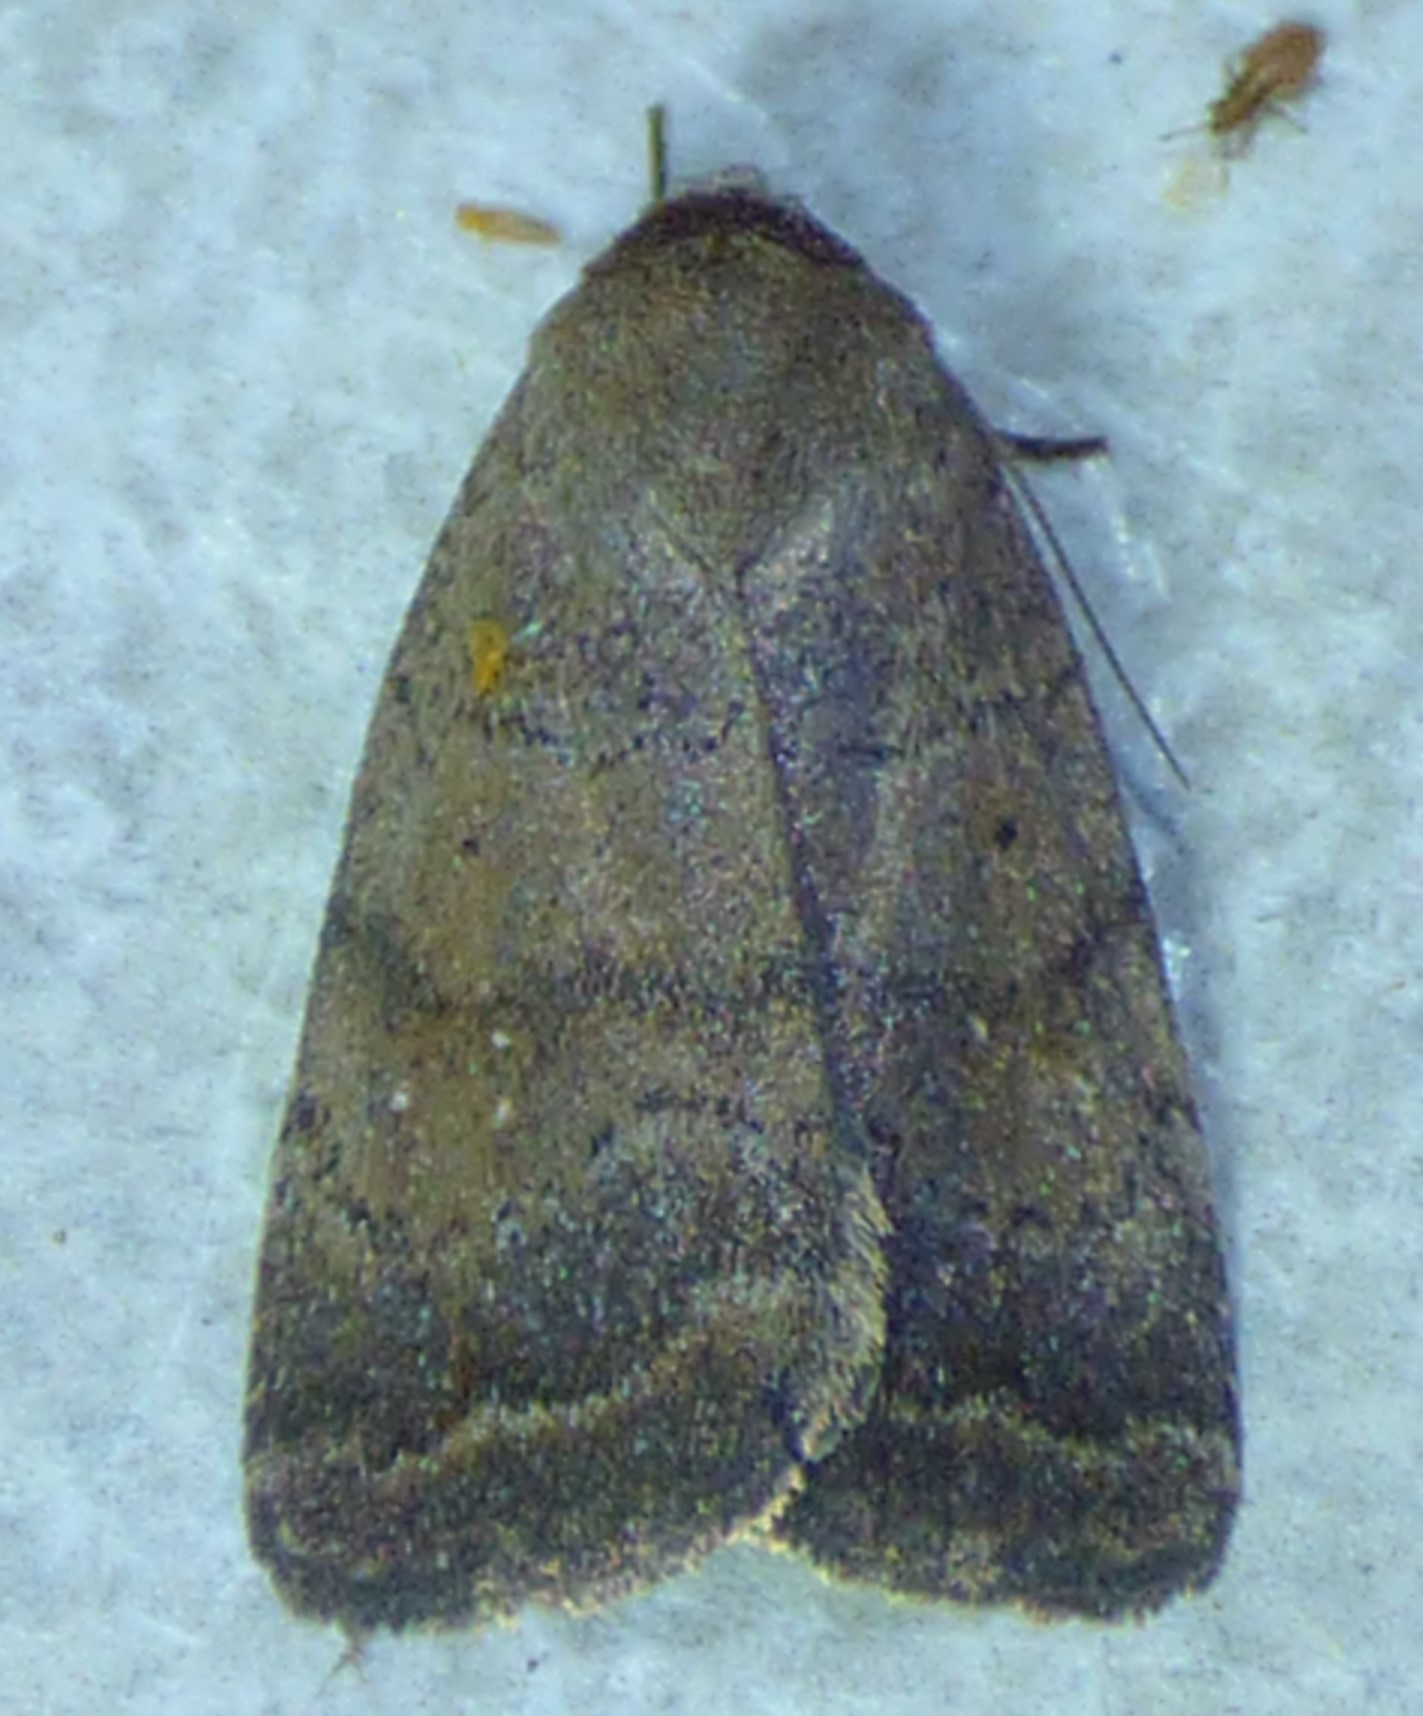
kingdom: Animalia
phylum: Arthropoda
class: Insecta
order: Lepidoptera
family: Noctuidae
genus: Athetis
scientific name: Athetis tarda
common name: Slowpoke moth
